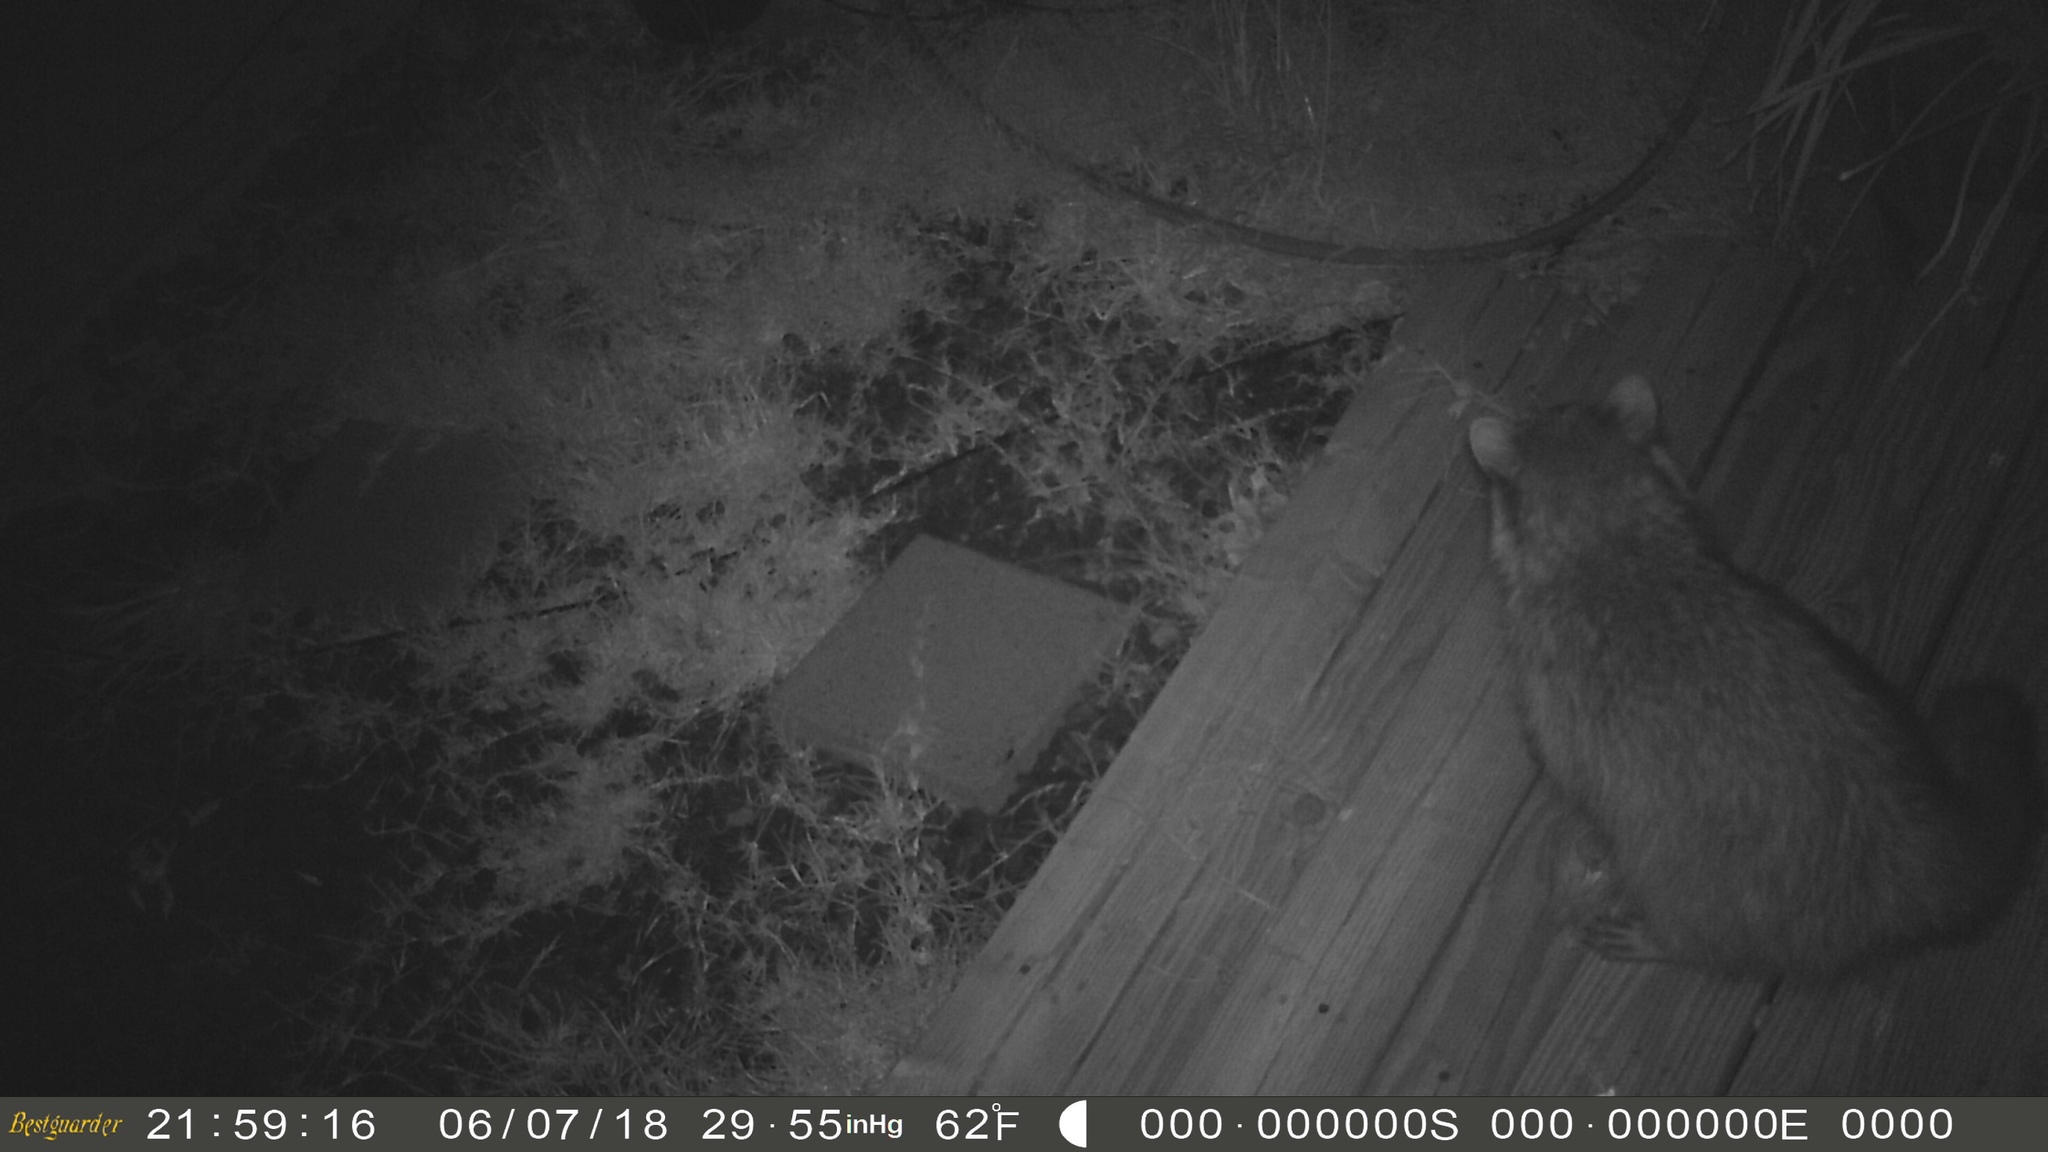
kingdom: Animalia
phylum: Chordata
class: Mammalia
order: Carnivora
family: Procyonidae
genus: Procyon
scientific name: Procyon lotor
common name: Raccoon
